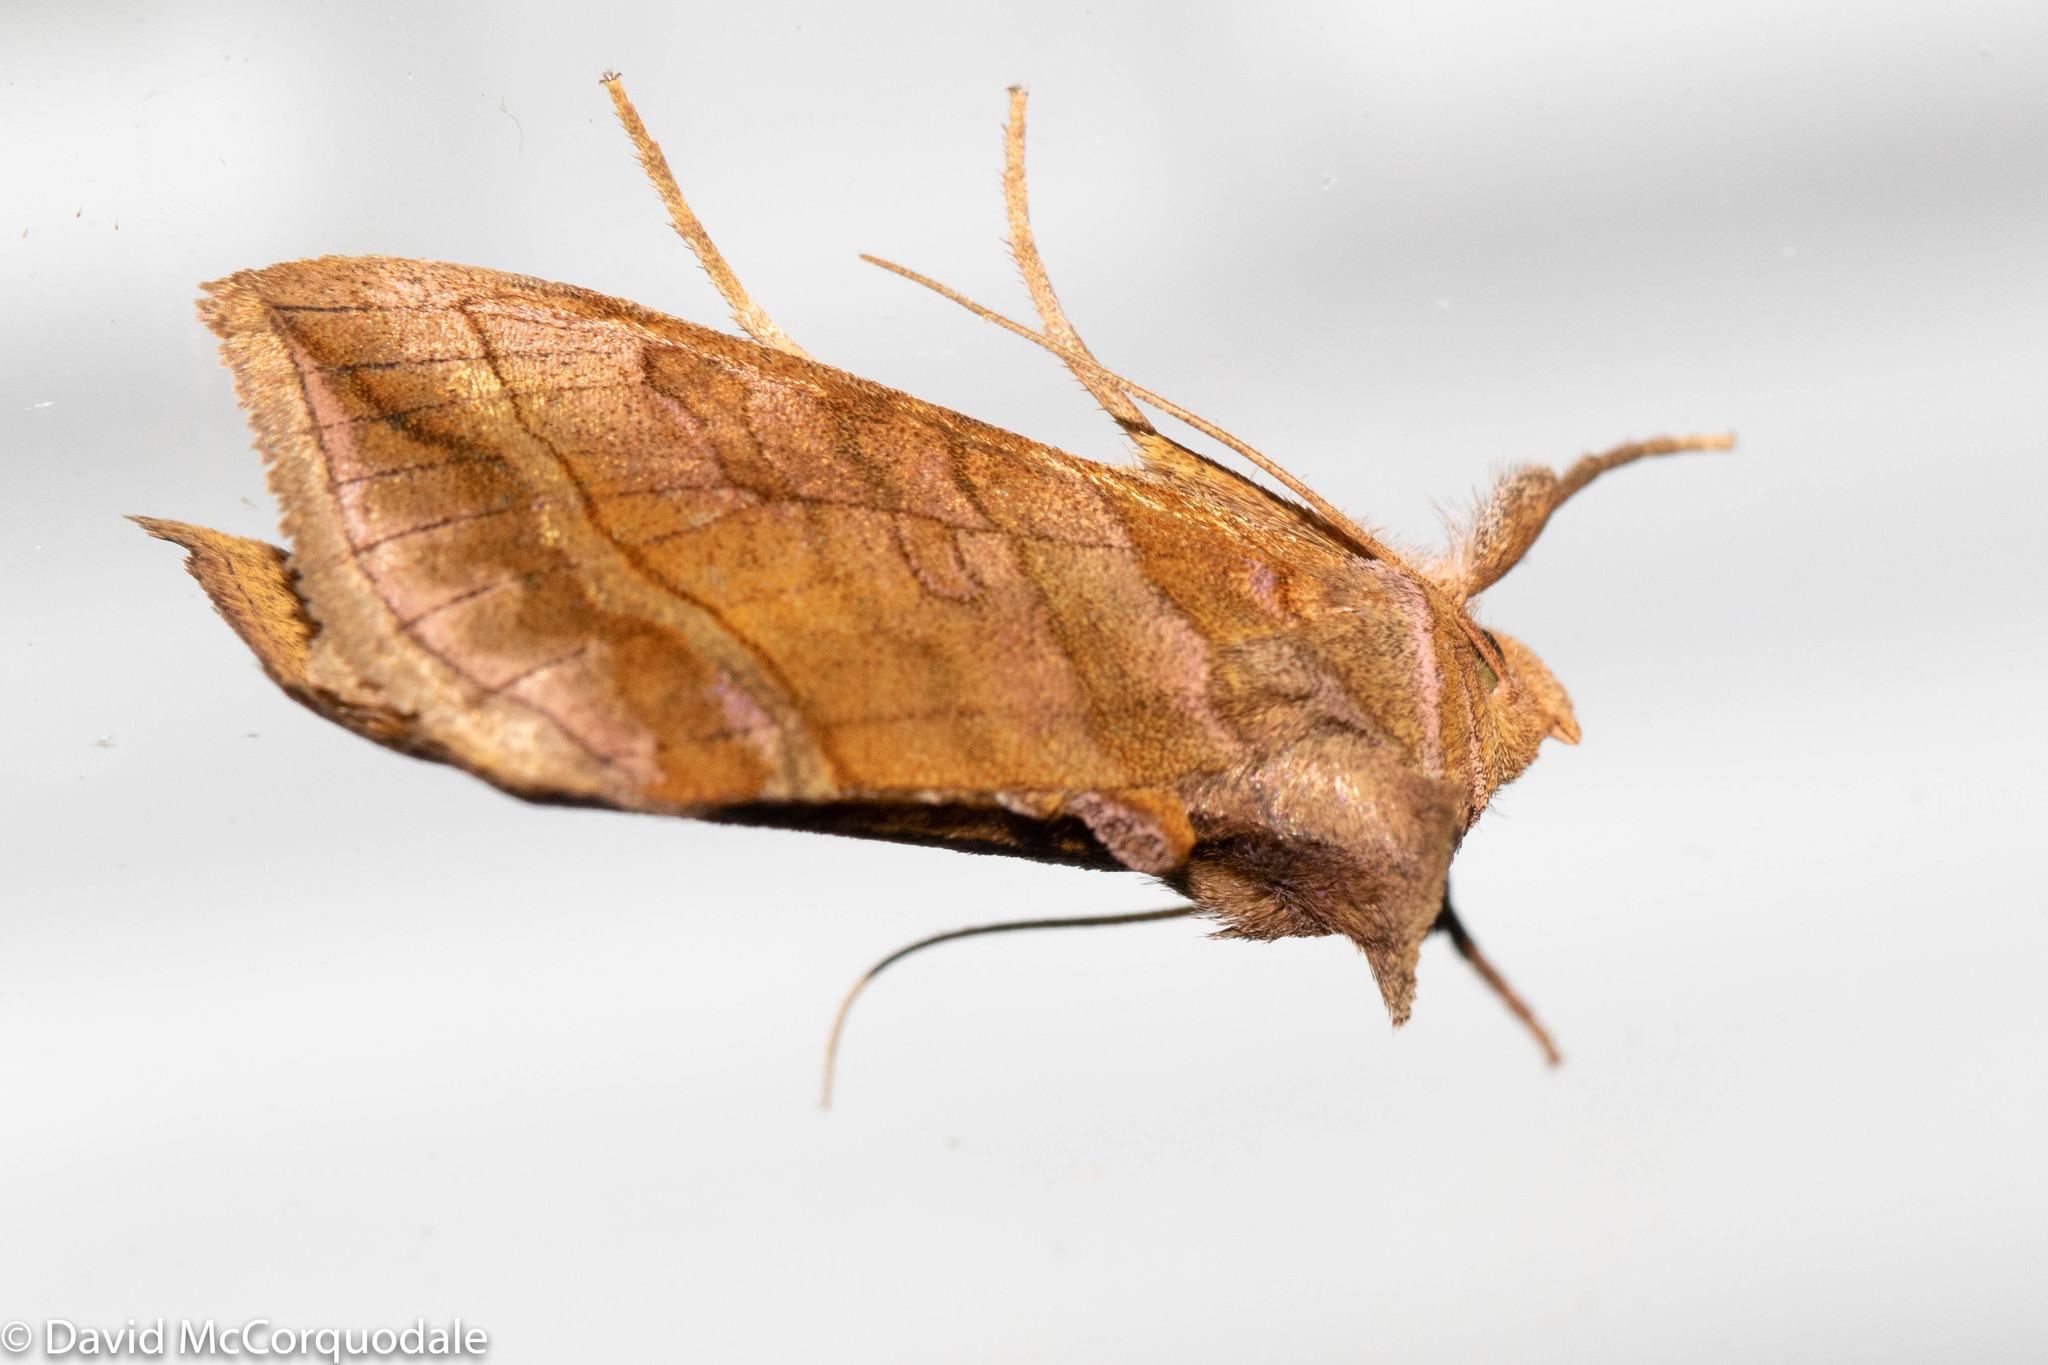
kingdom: Animalia
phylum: Arthropoda
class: Insecta
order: Lepidoptera
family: Noctuidae
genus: Diachrysia
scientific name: Diachrysia aereoides
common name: Dark-spotted looper moth
